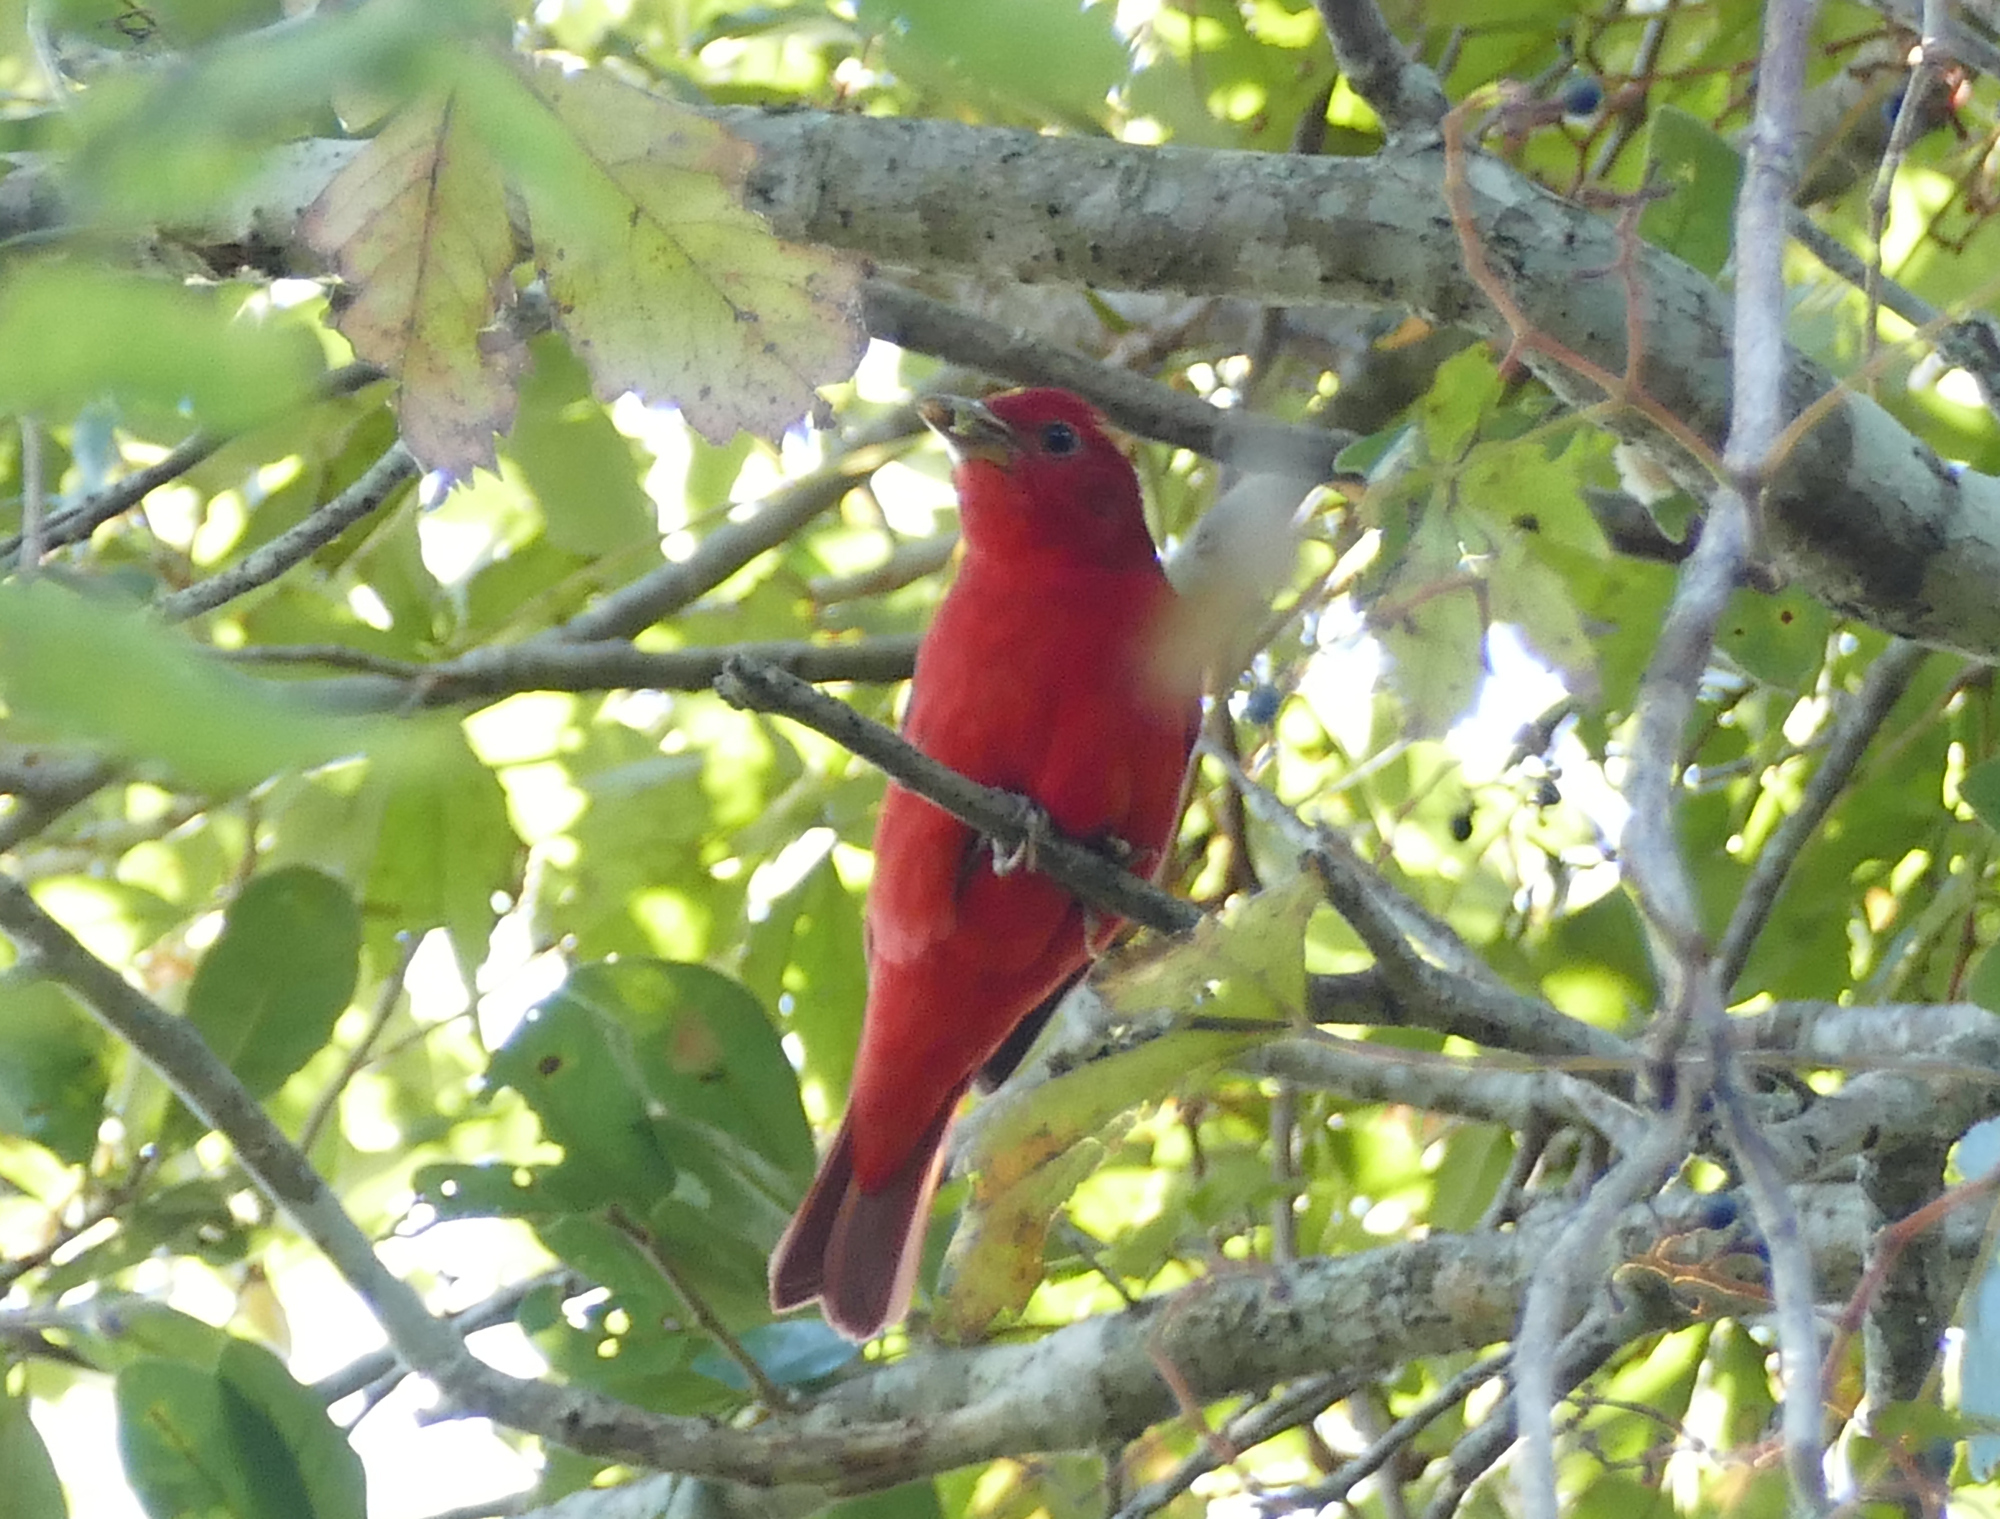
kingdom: Animalia
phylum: Chordata
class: Aves
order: Passeriformes
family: Cardinalidae
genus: Piranga
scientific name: Piranga rubra
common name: Summer tanager
